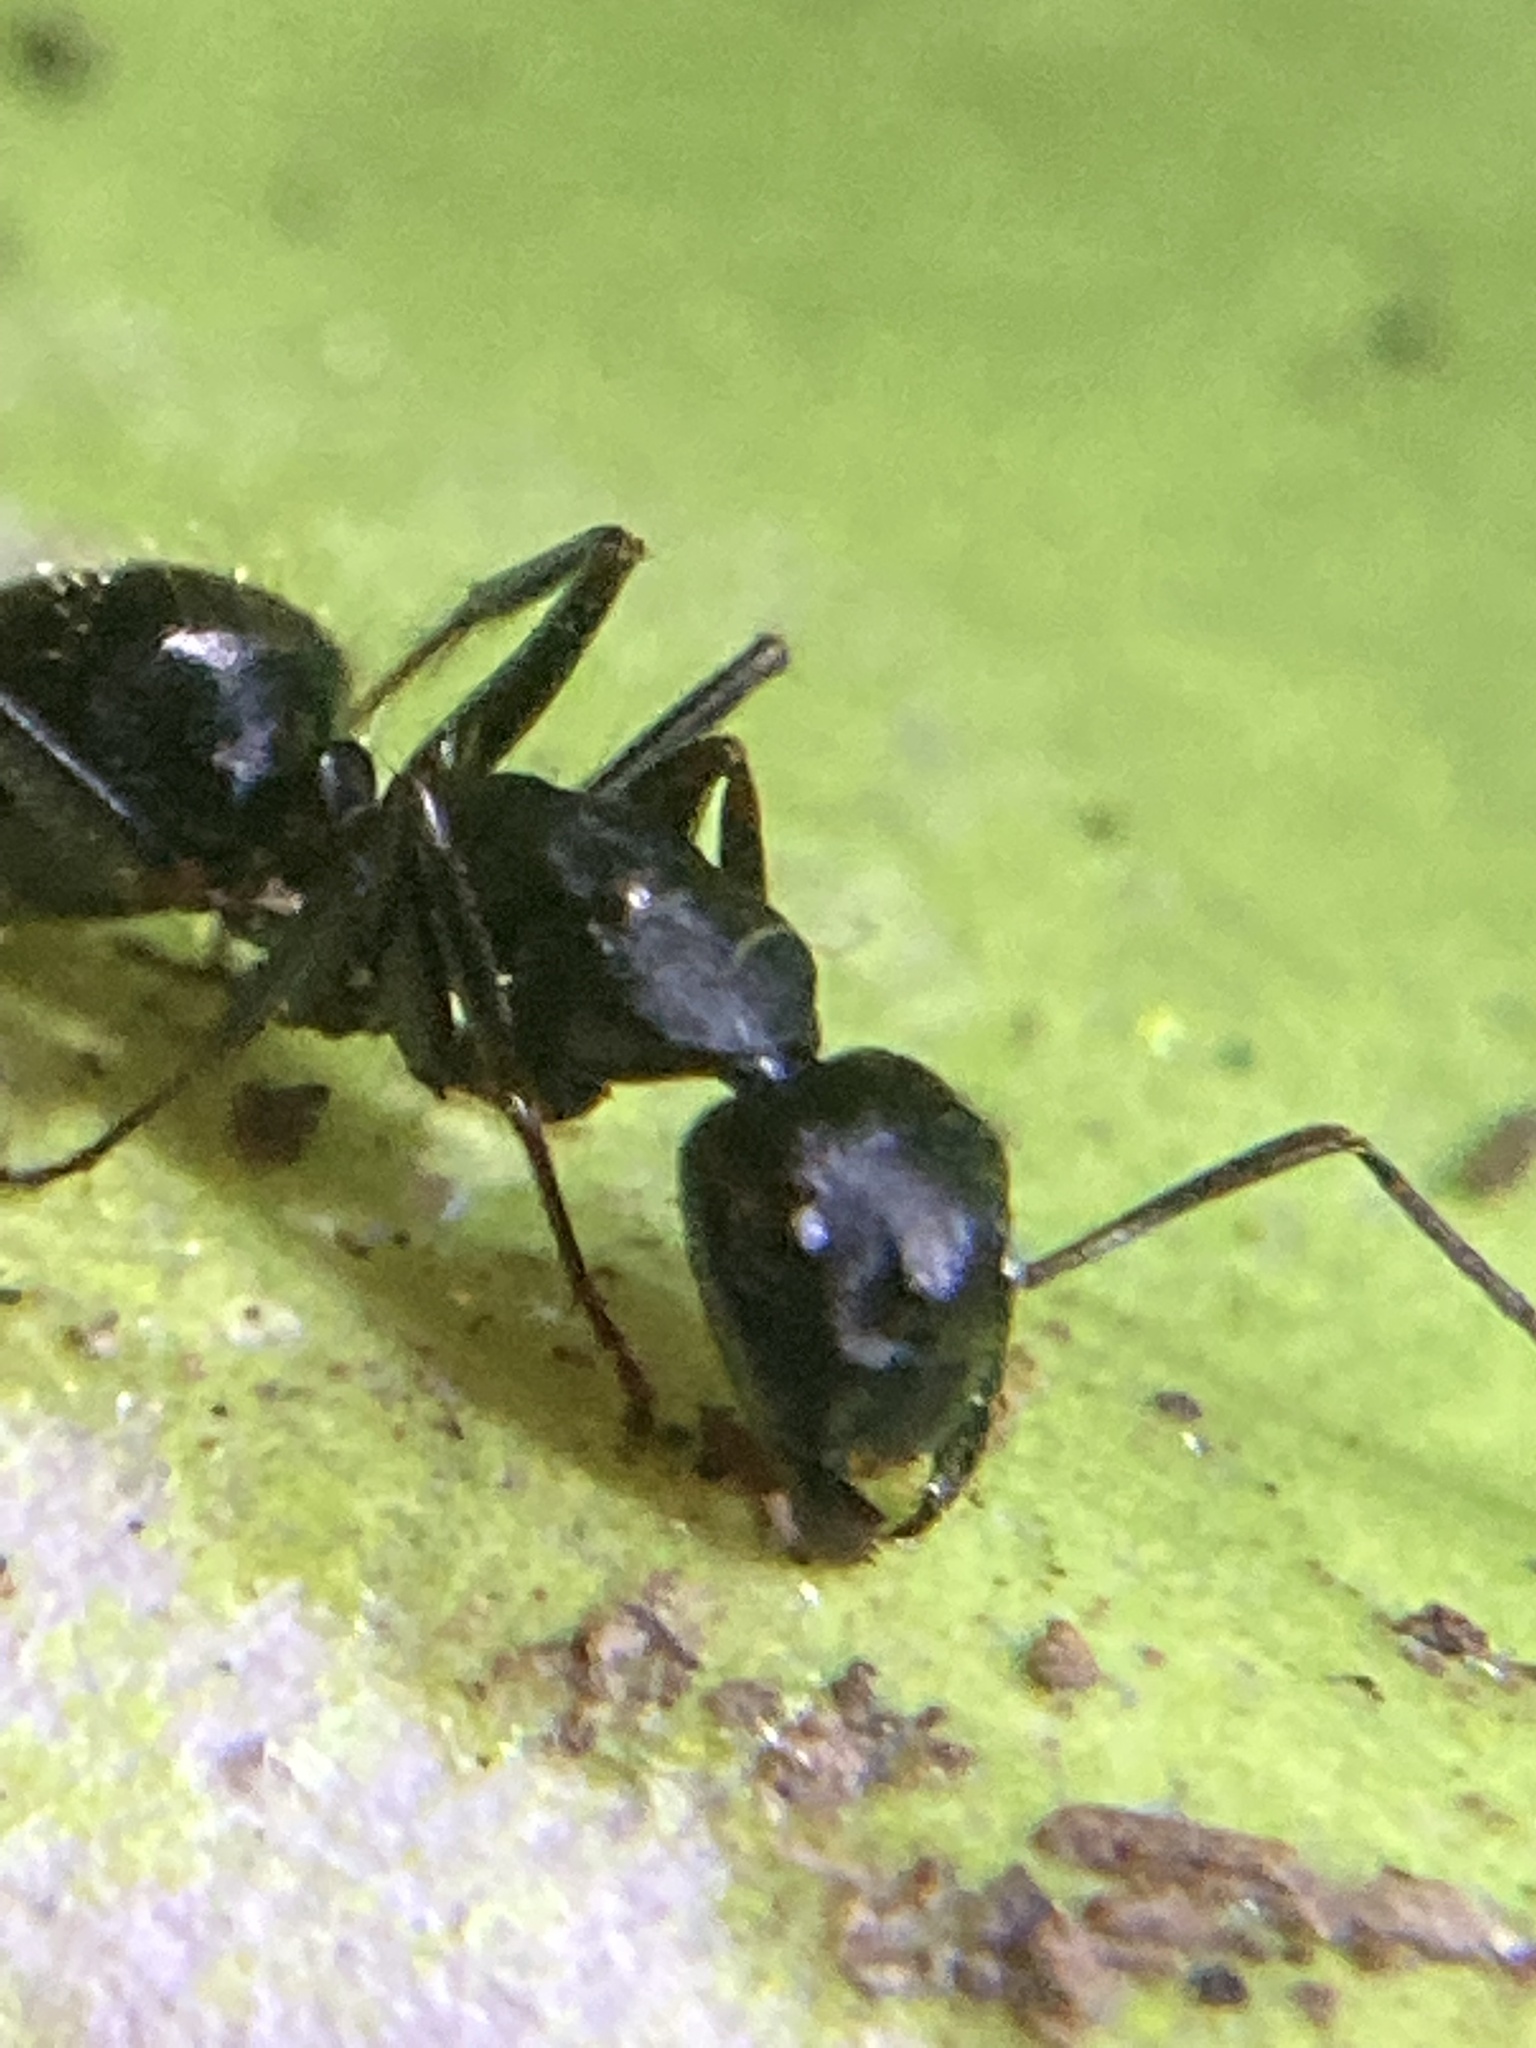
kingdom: Animalia
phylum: Arthropoda
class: Insecta
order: Hymenoptera
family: Formicidae
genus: Camponotus
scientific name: Camponotus pennsylvanicus
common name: Black carpenter ant
